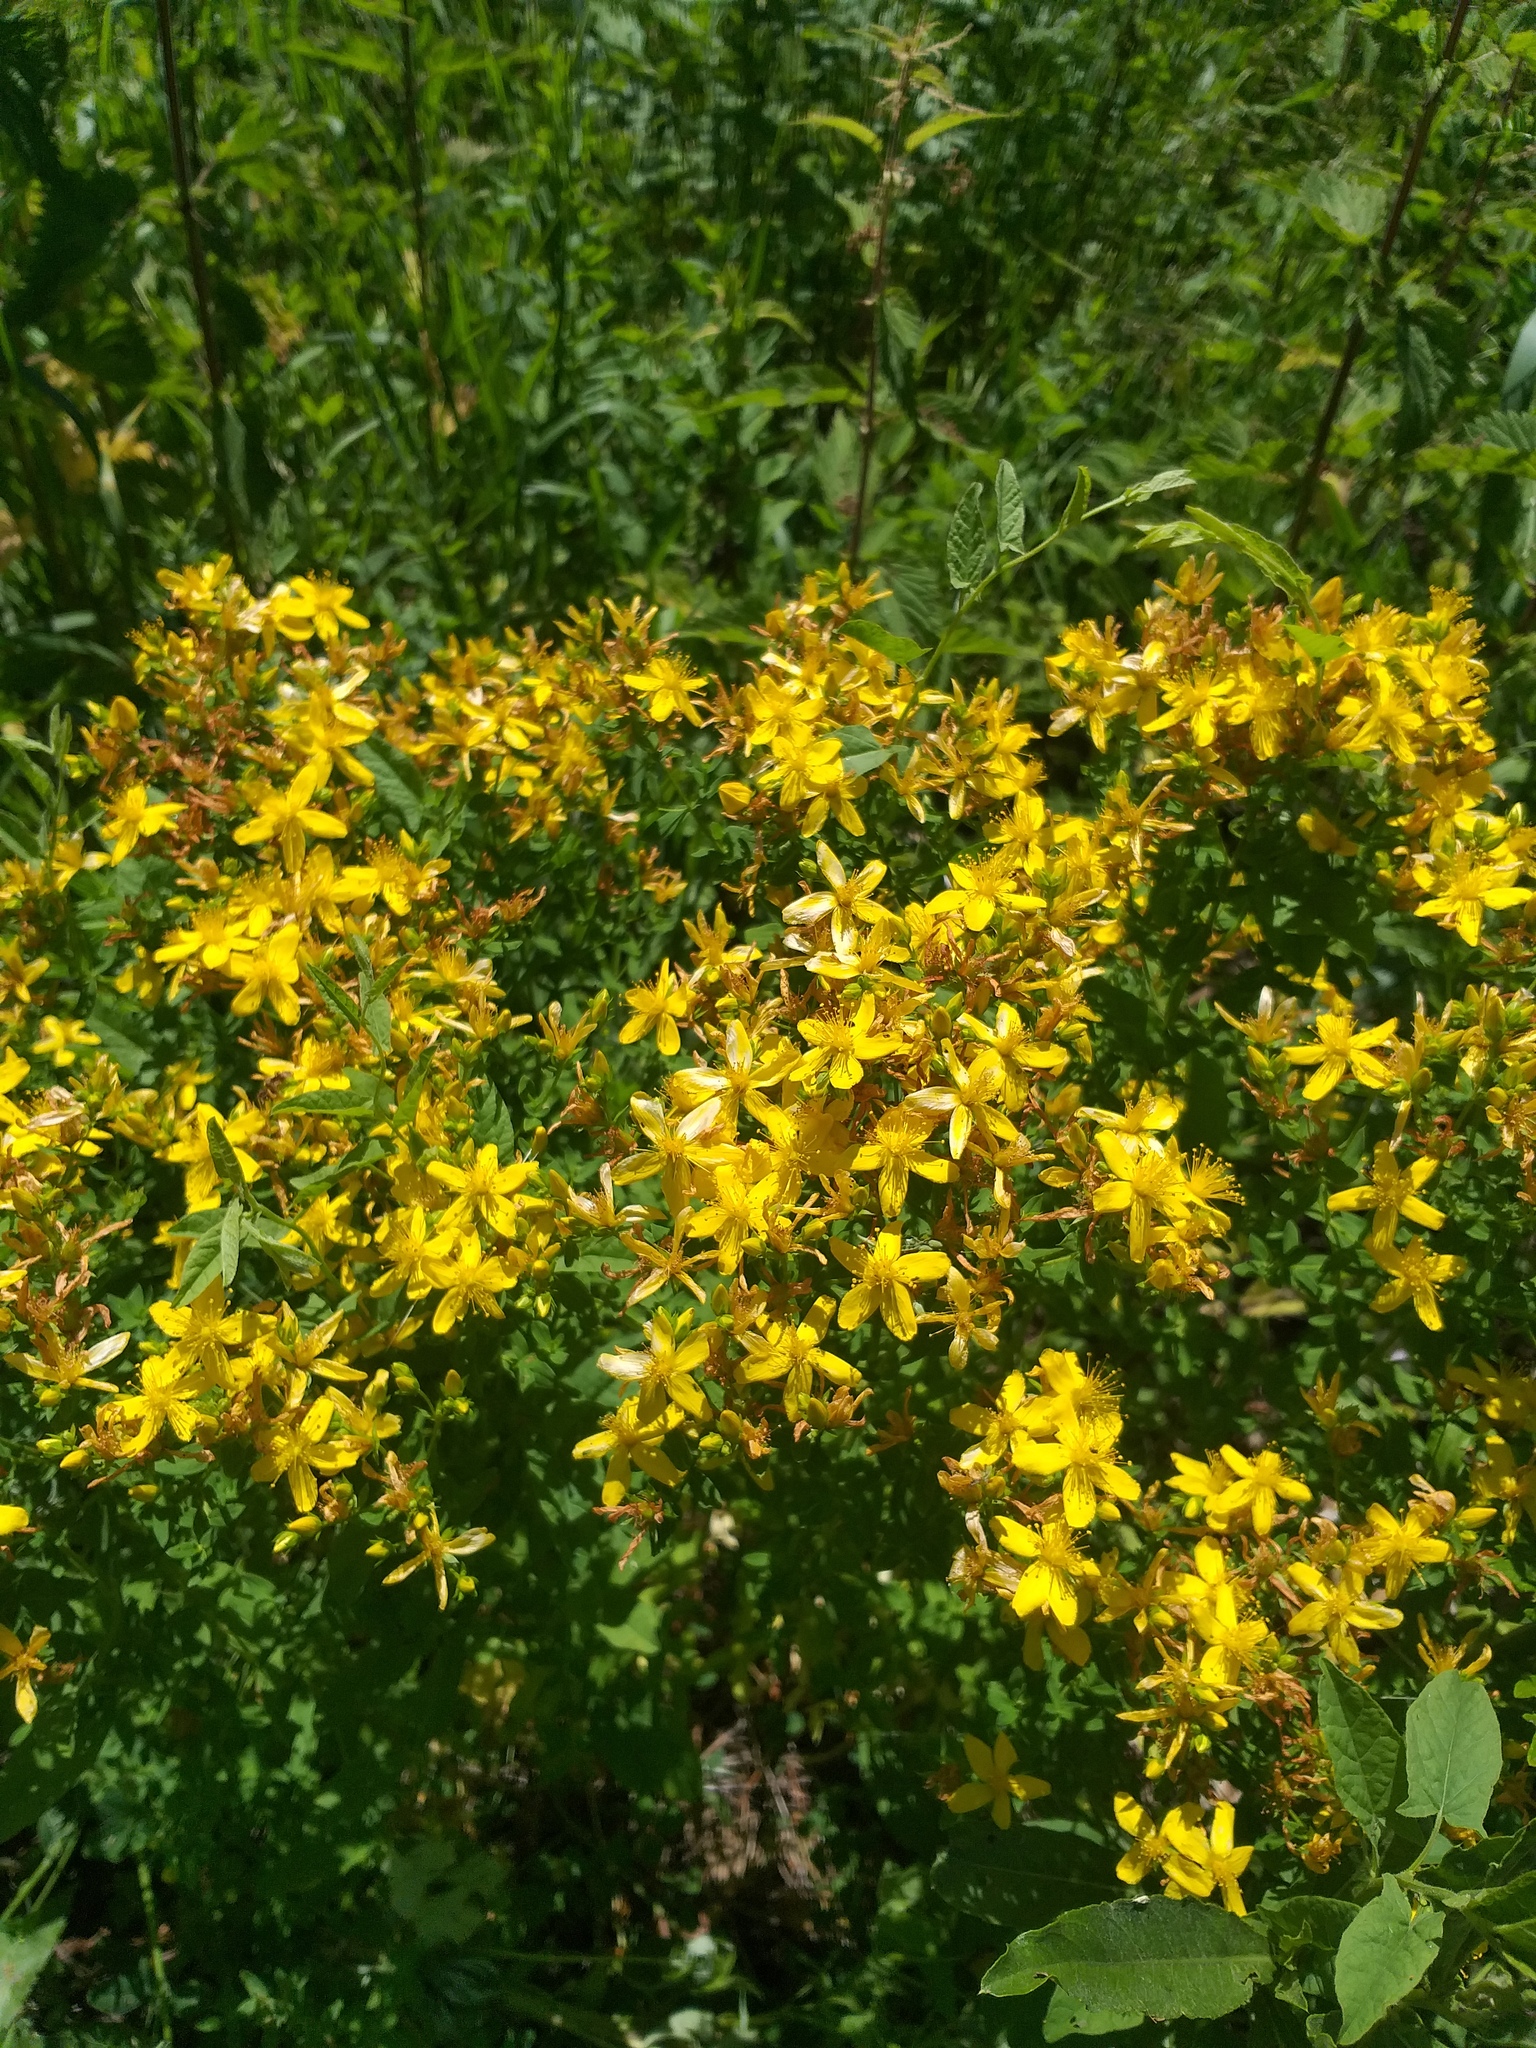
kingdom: Plantae
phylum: Tracheophyta
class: Magnoliopsida
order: Malpighiales
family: Hypericaceae
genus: Hypericum
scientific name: Hypericum perforatum
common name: Common st. johnswort
